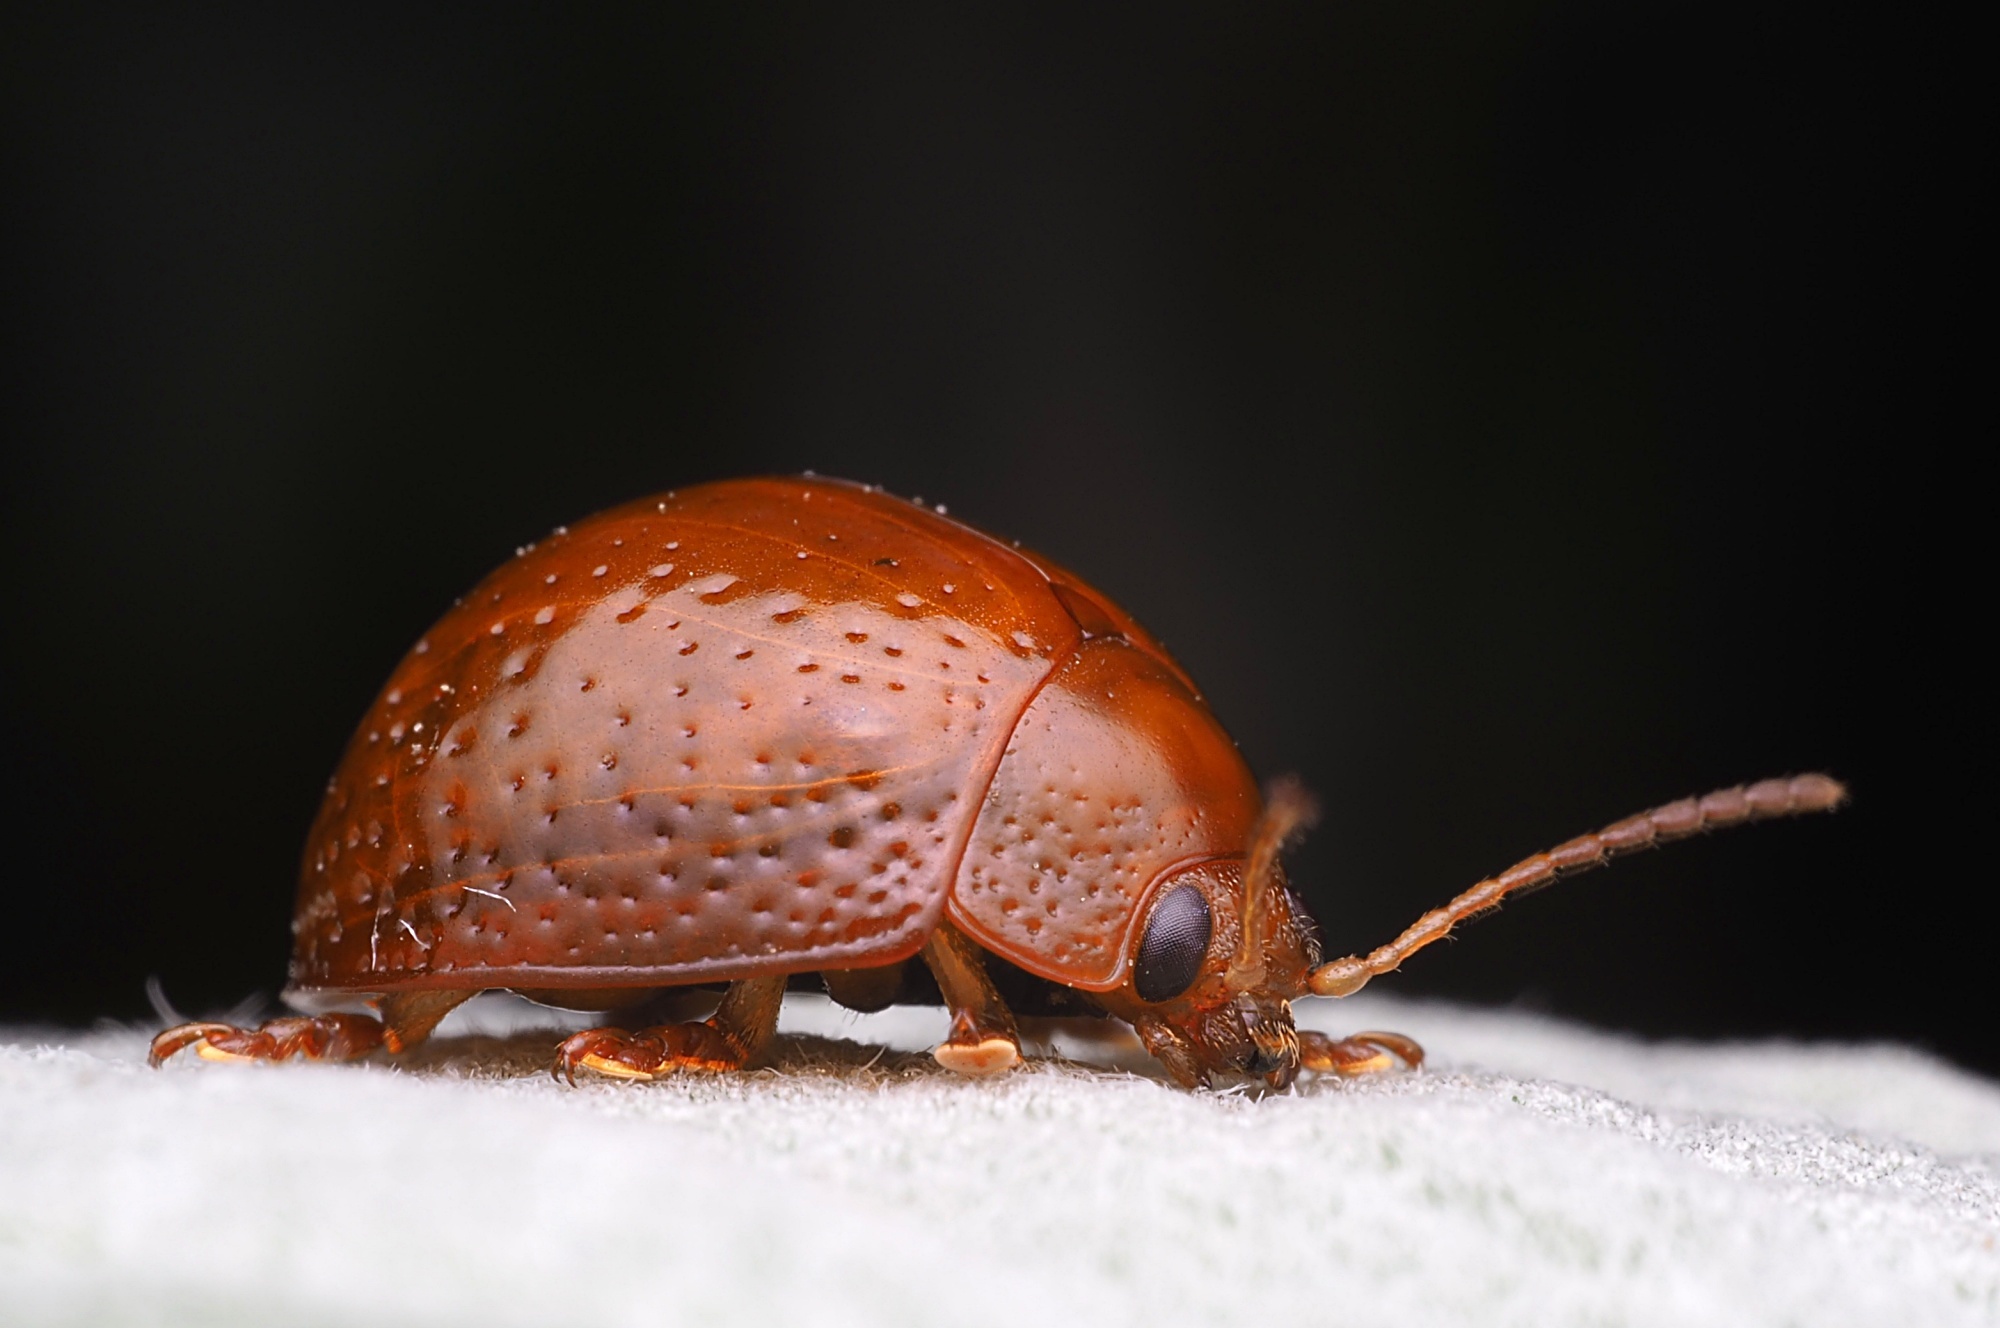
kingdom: Animalia
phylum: Arthropoda
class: Insecta
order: Coleoptera
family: Chrysomelidae
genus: Dicranosterna
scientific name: Dicranosterna
